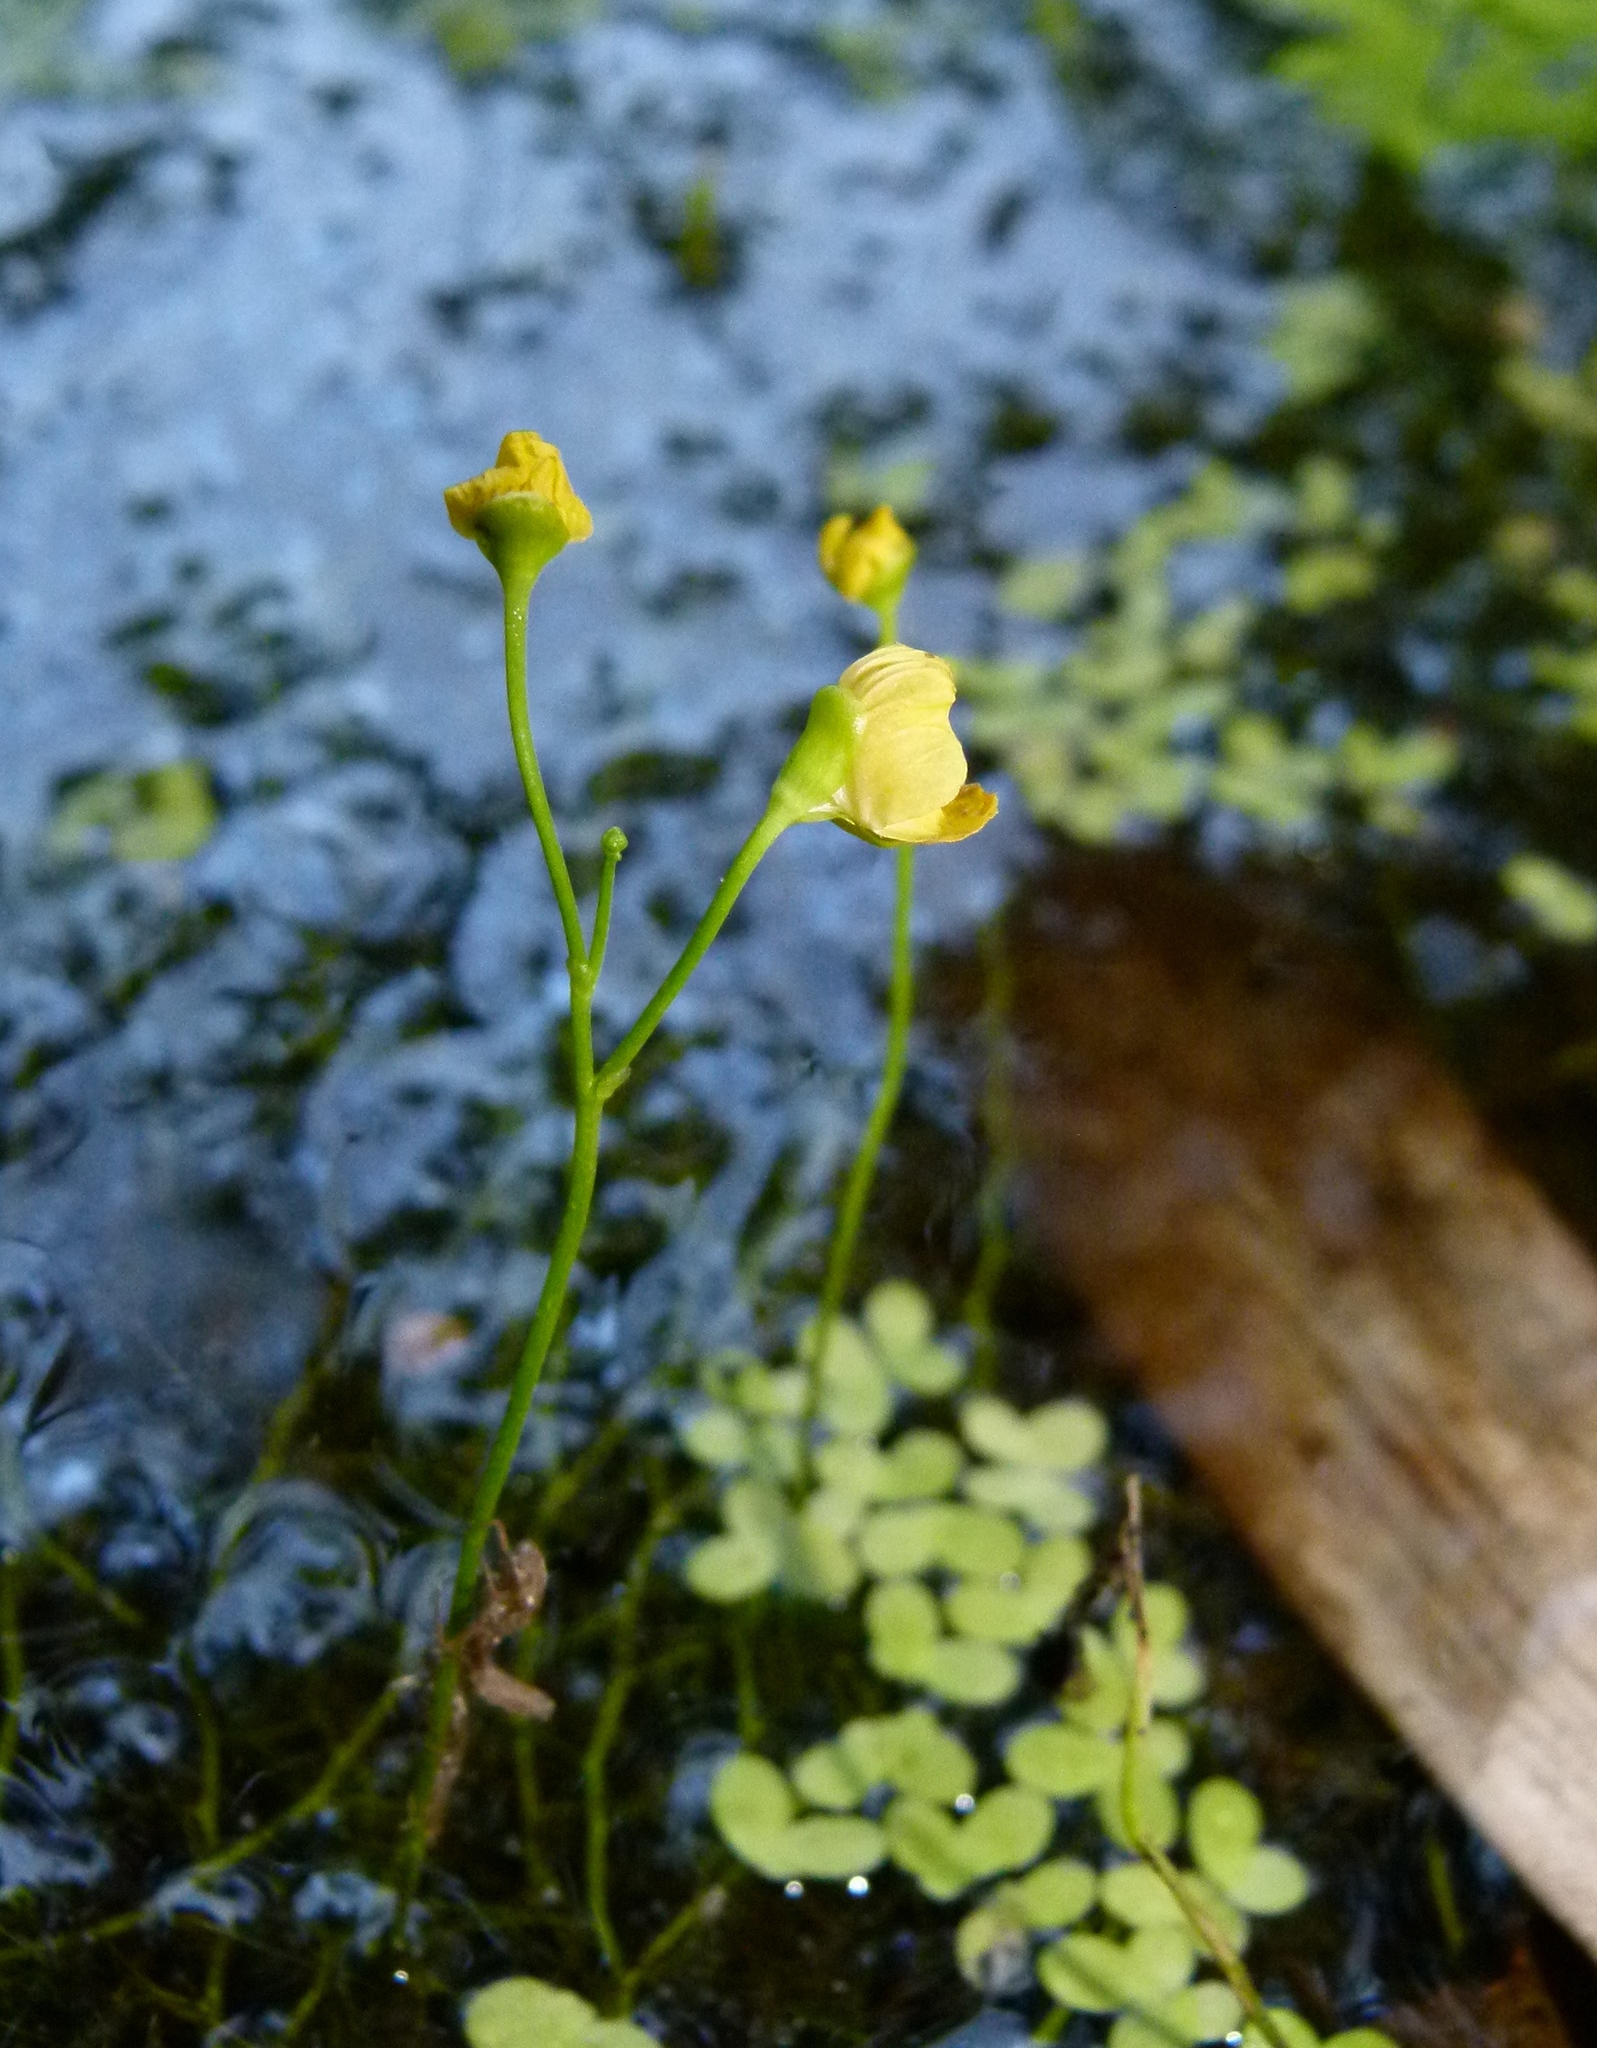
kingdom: Plantae
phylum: Tracheophyta
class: Magnoliopsida
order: Lamiales
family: Lentibulariaceae
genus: Utricularia
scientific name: Utricularia gibba
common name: Humped bladderwort
